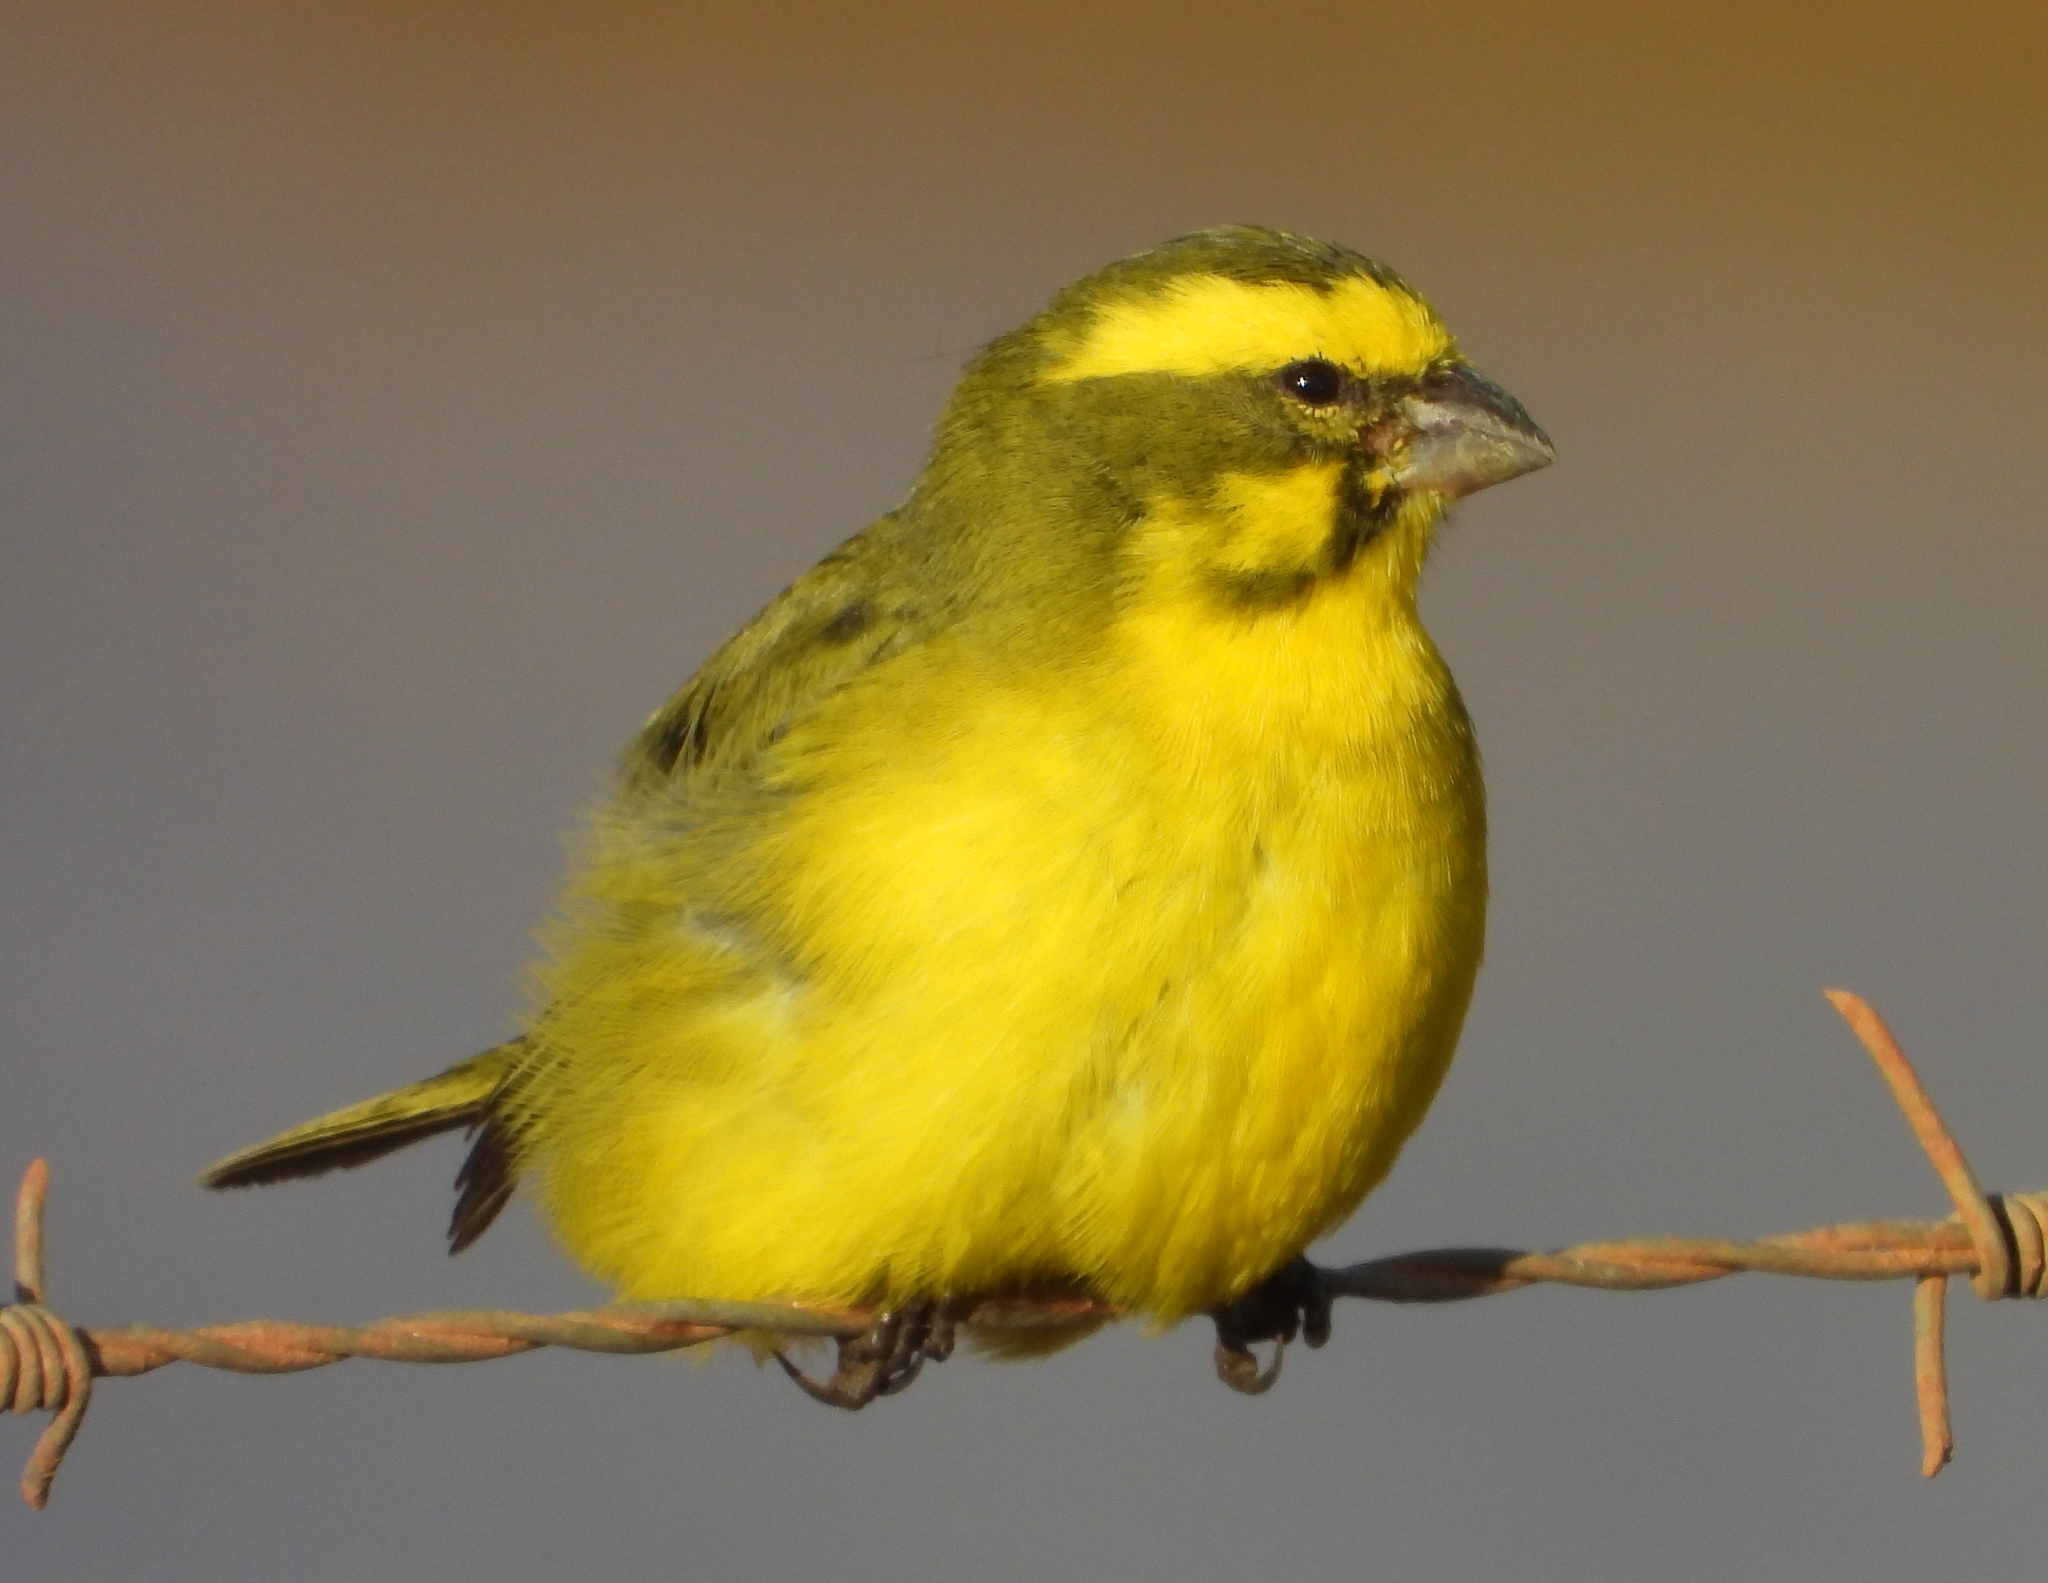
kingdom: Animalia
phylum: Chordata
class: Aves
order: Passeriformes
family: Fringillidae
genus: Crithagra
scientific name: Crithagra flaviventris
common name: Yellow canary
